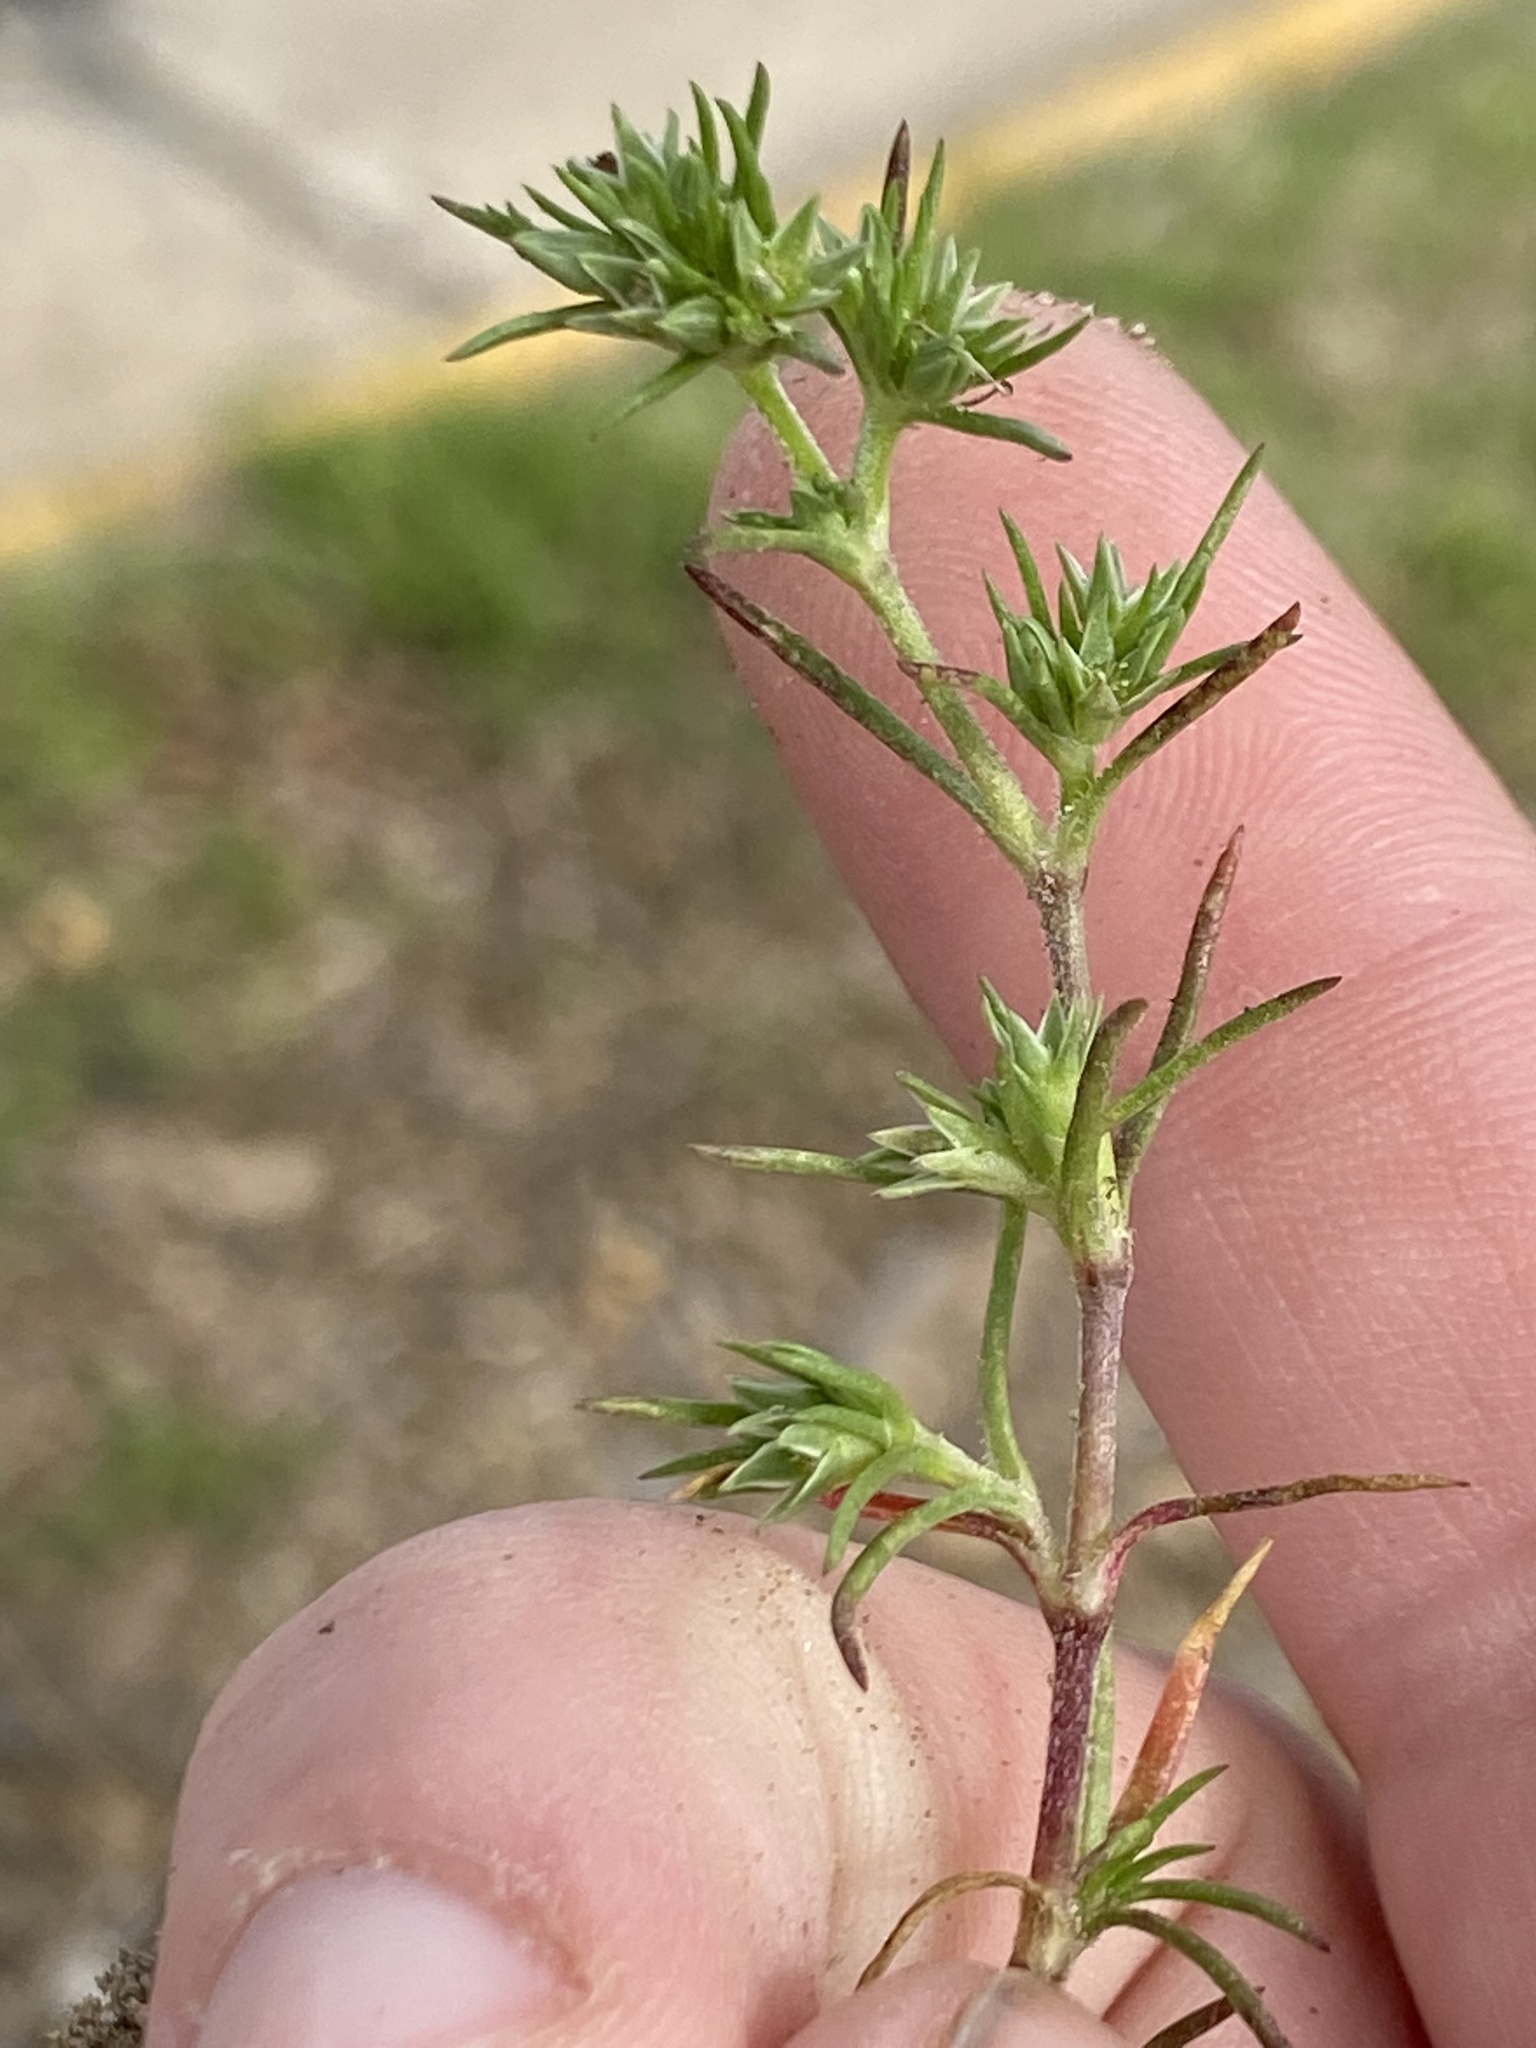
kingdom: Plantae
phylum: Tracheophyta
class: Magnoliopsida
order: Caryophyllales
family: Caryophyllaceae
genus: Scleranthus
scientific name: Scleranthus annuus
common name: Annual knawel
